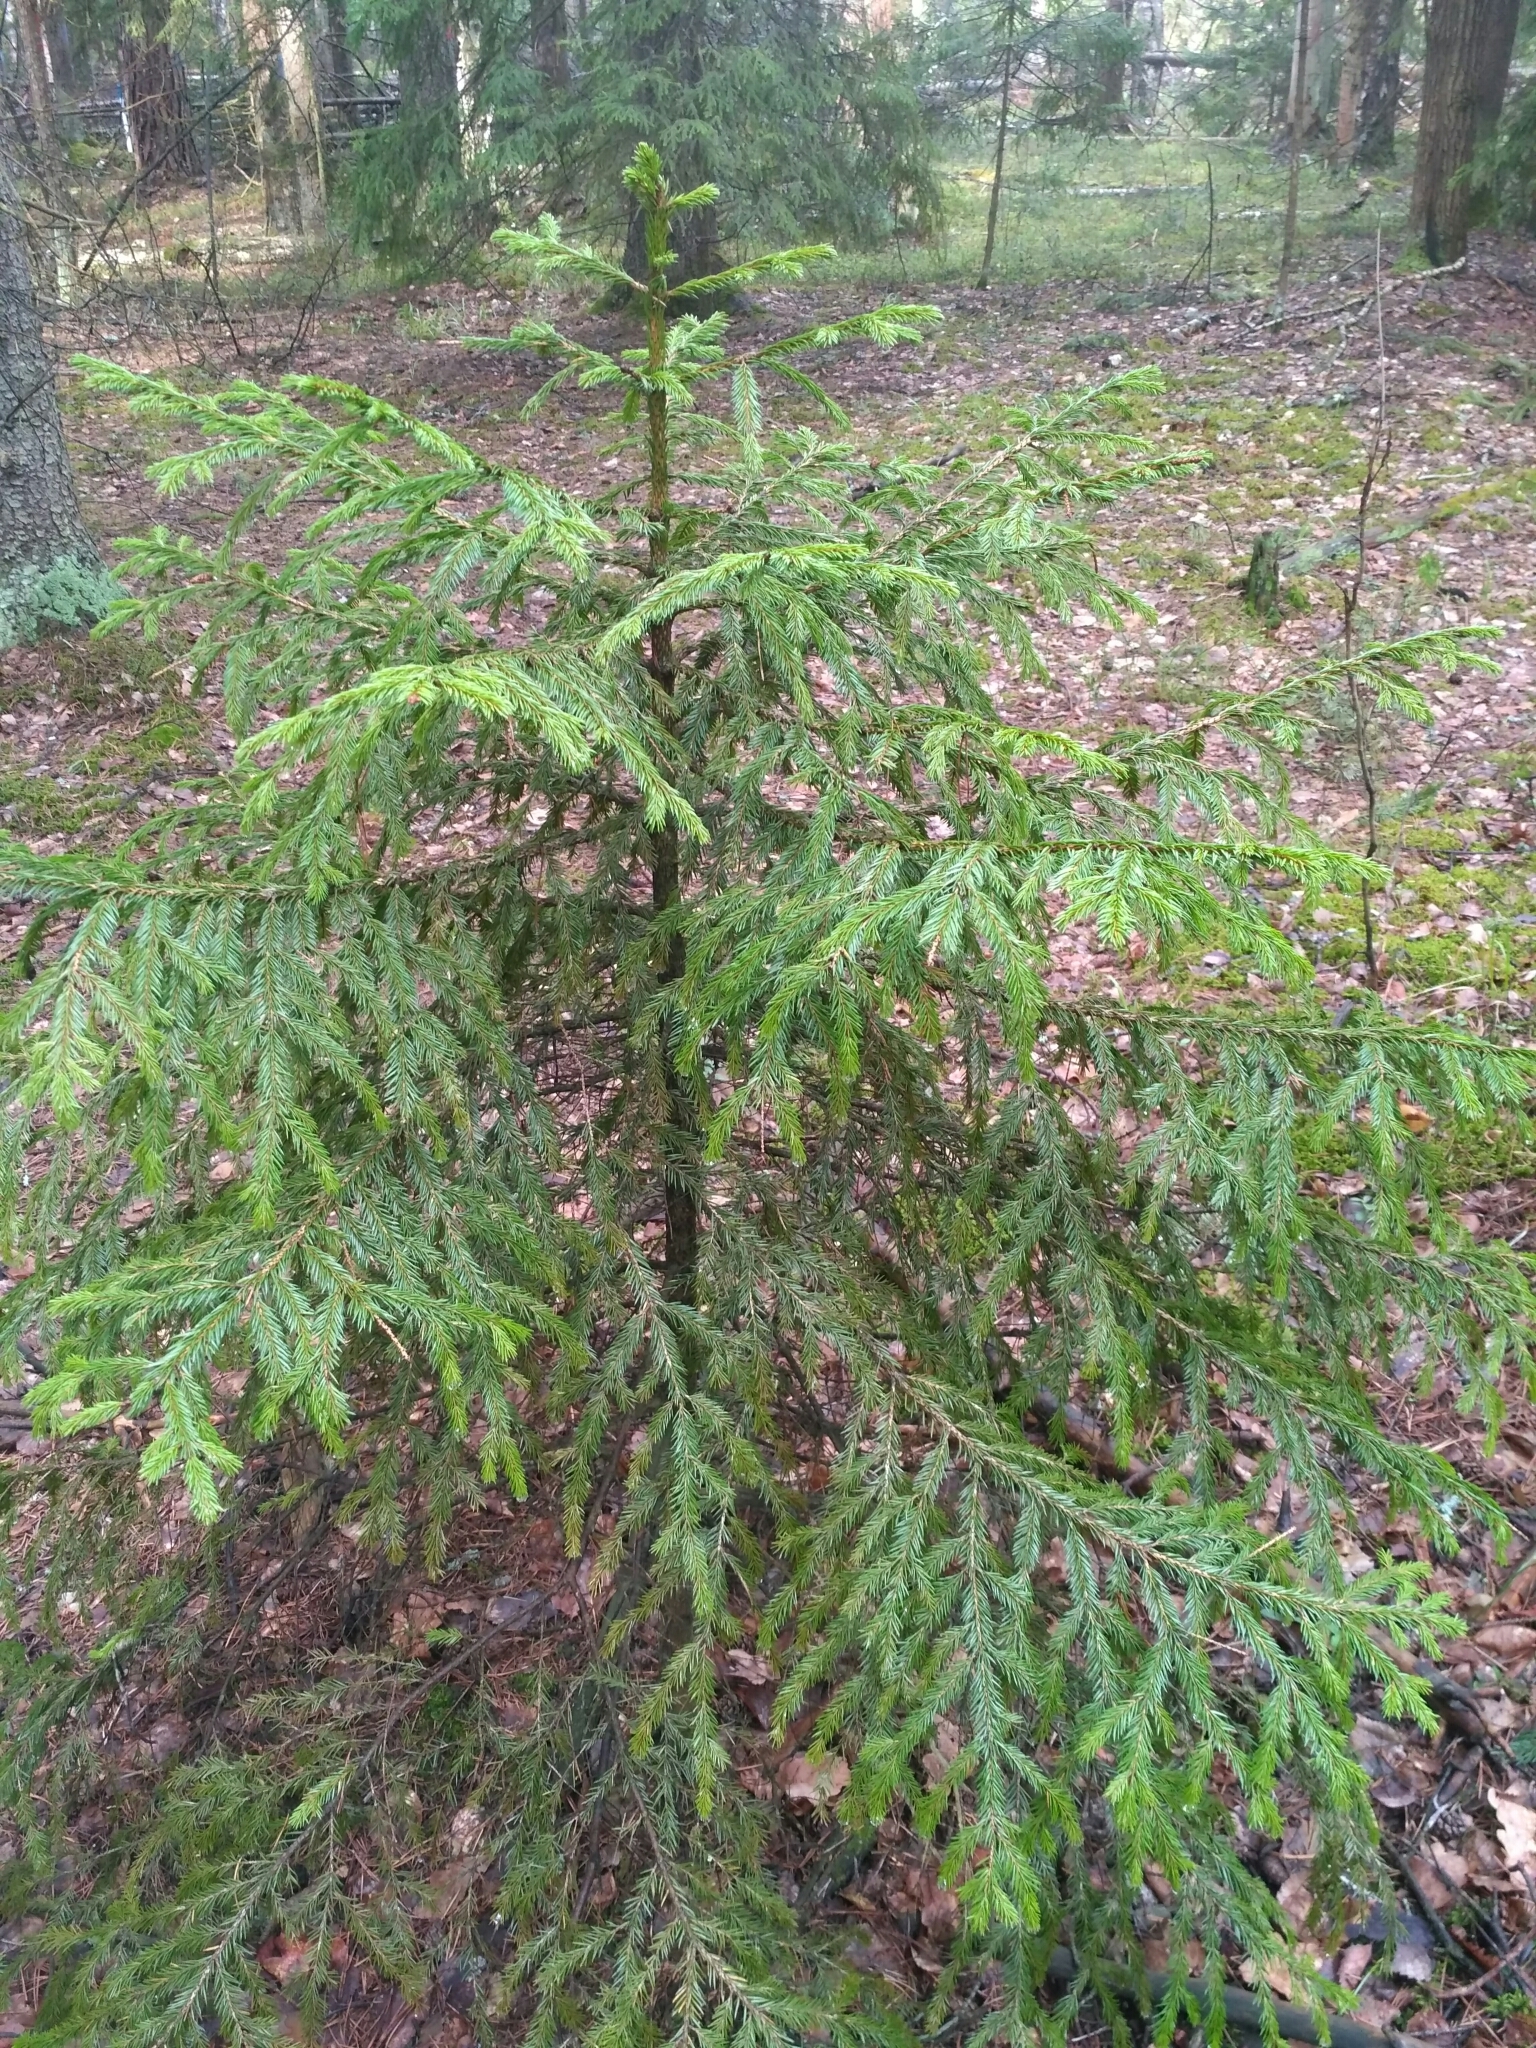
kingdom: Plantae
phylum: Tracheophyta
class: Pinopsida
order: Pinales
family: Pinaceae
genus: Picea
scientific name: Picea abies
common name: Norway spruce
